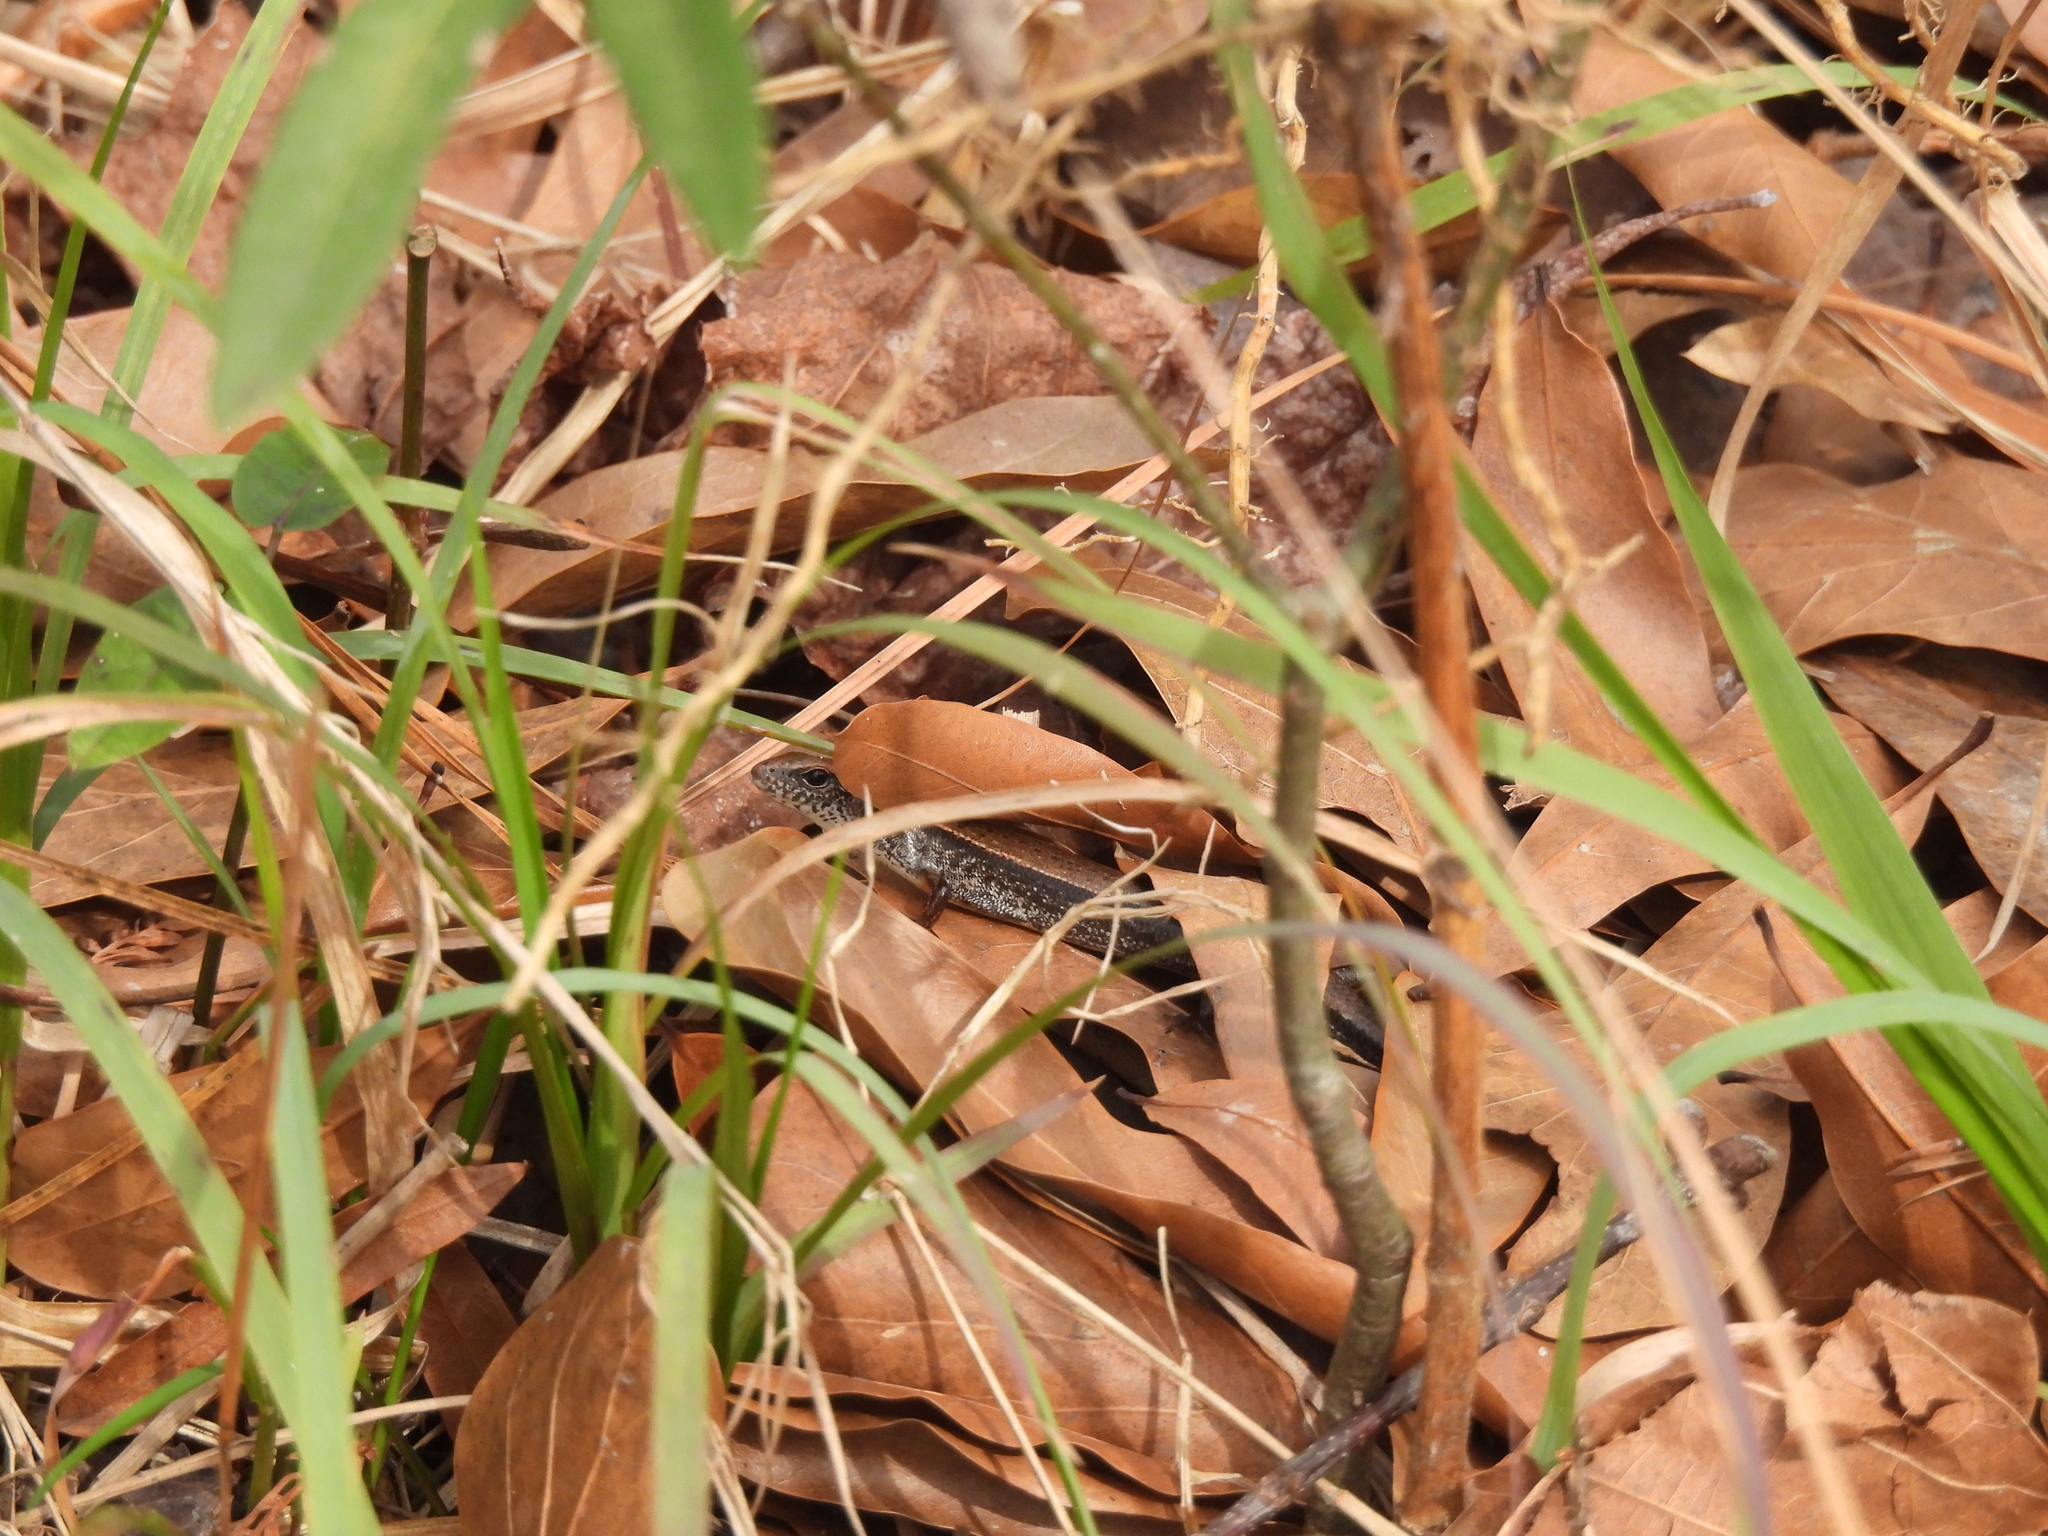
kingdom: Animalia
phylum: Chordata
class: Squamata
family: Scincidae
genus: Scincella
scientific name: Scincella lateralis
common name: Ground skink
